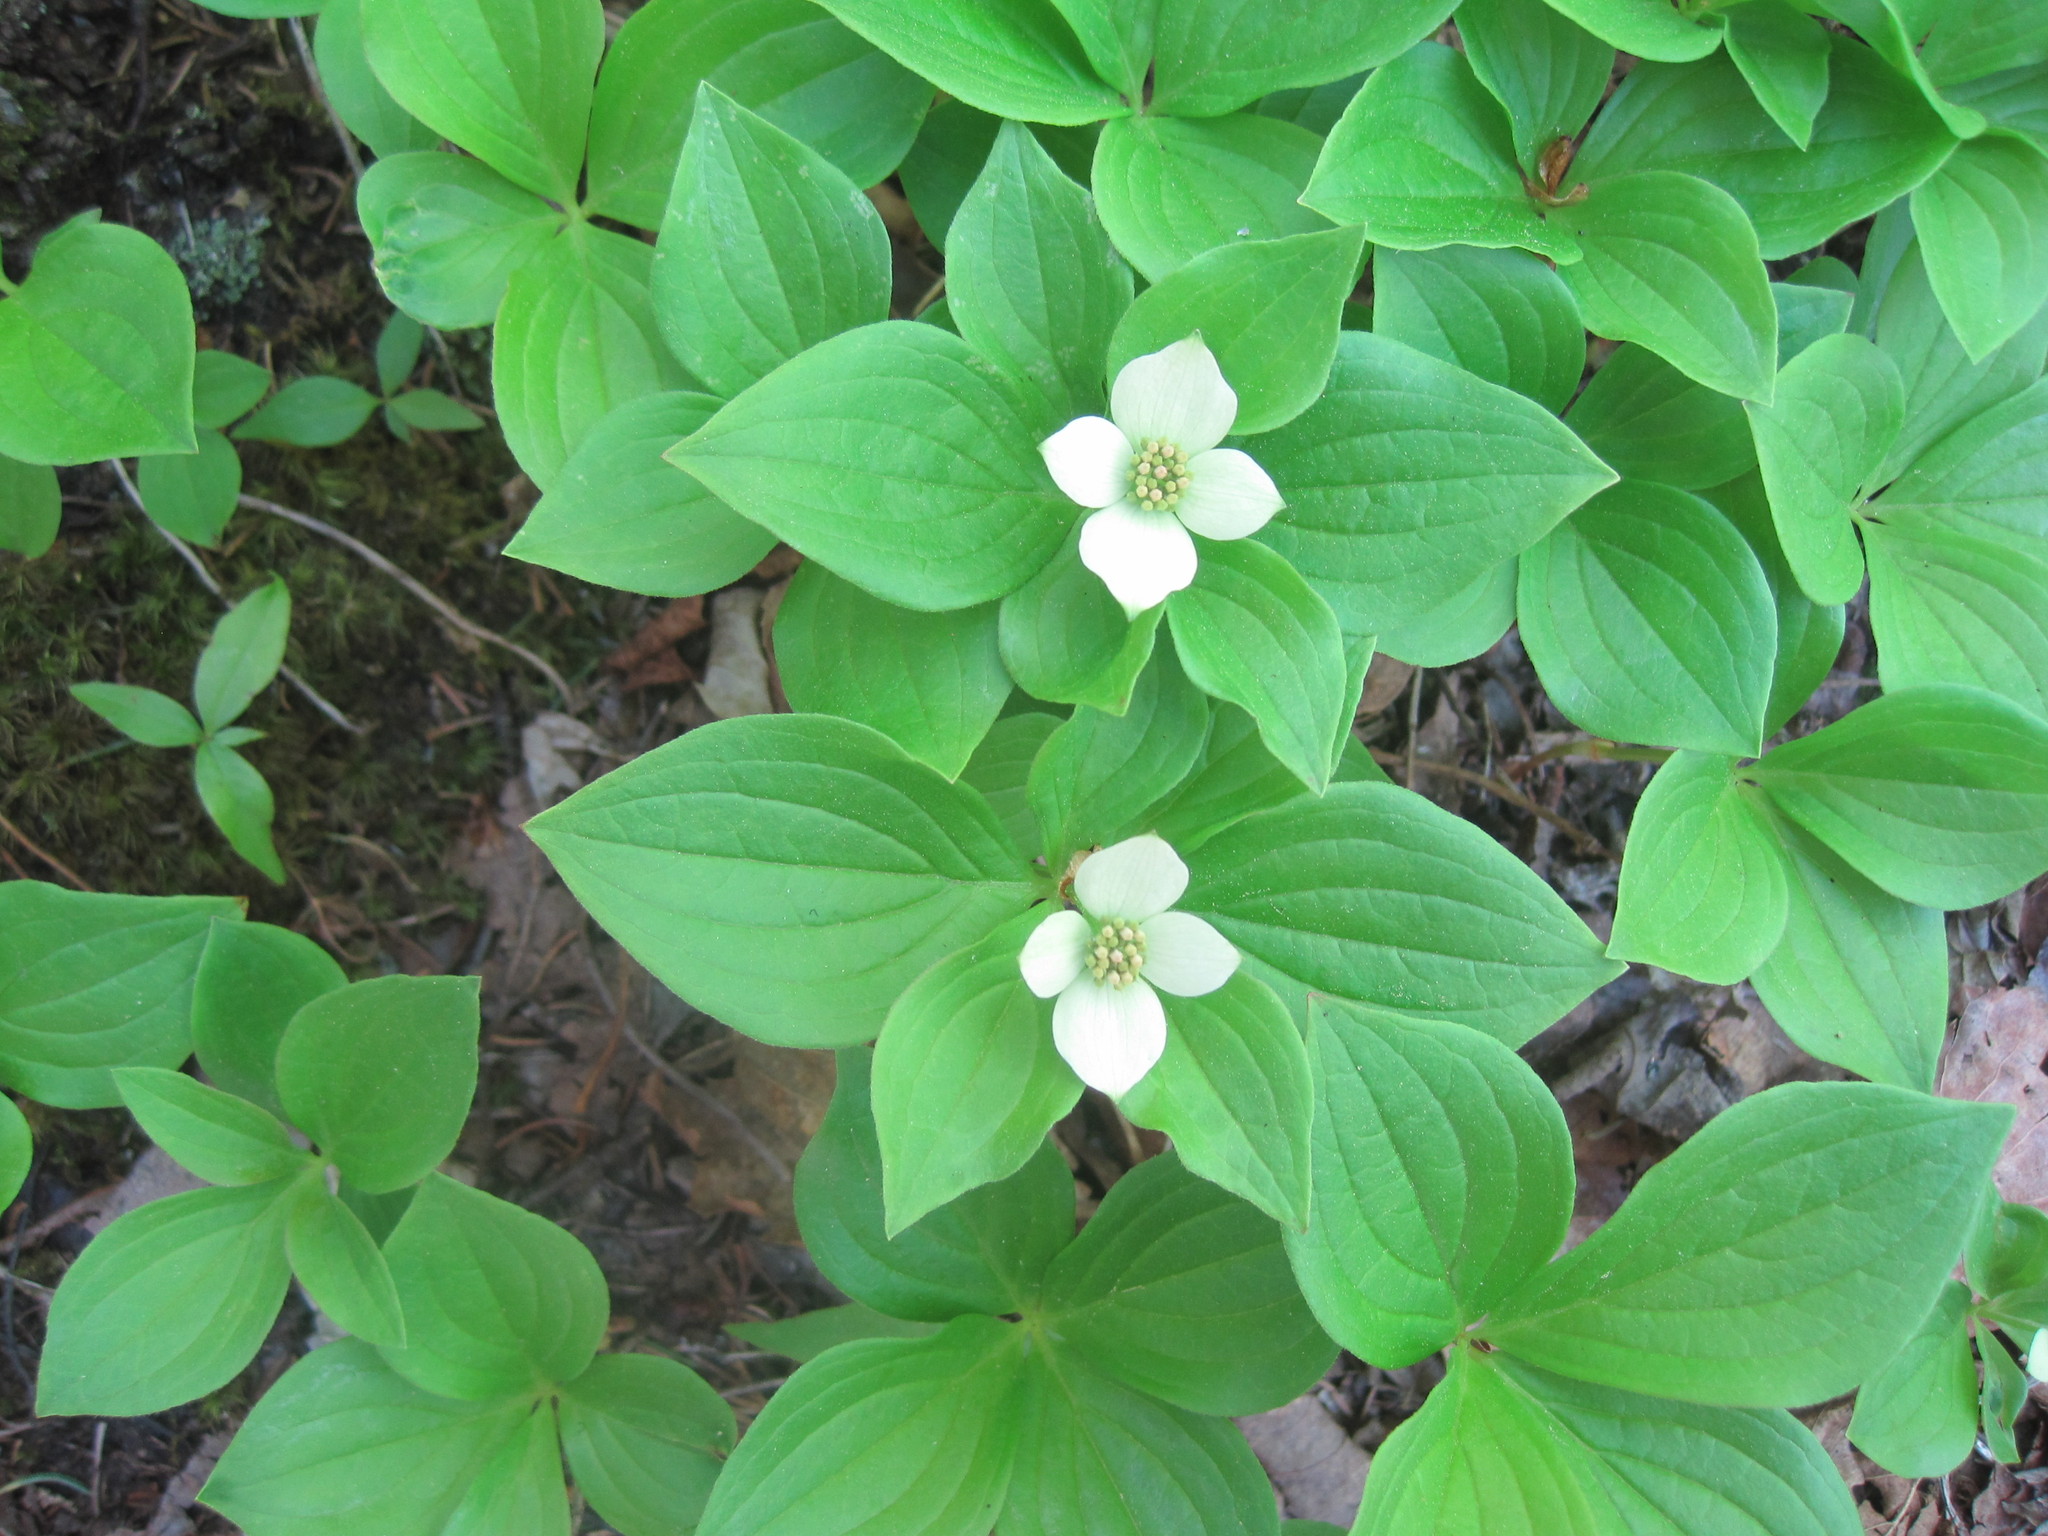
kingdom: Plantae
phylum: Tracheophyta
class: Magnoliopsida
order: Cornales
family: Cornaceae
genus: Cornus
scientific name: Cornus canadensis
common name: Creeping dogwood
